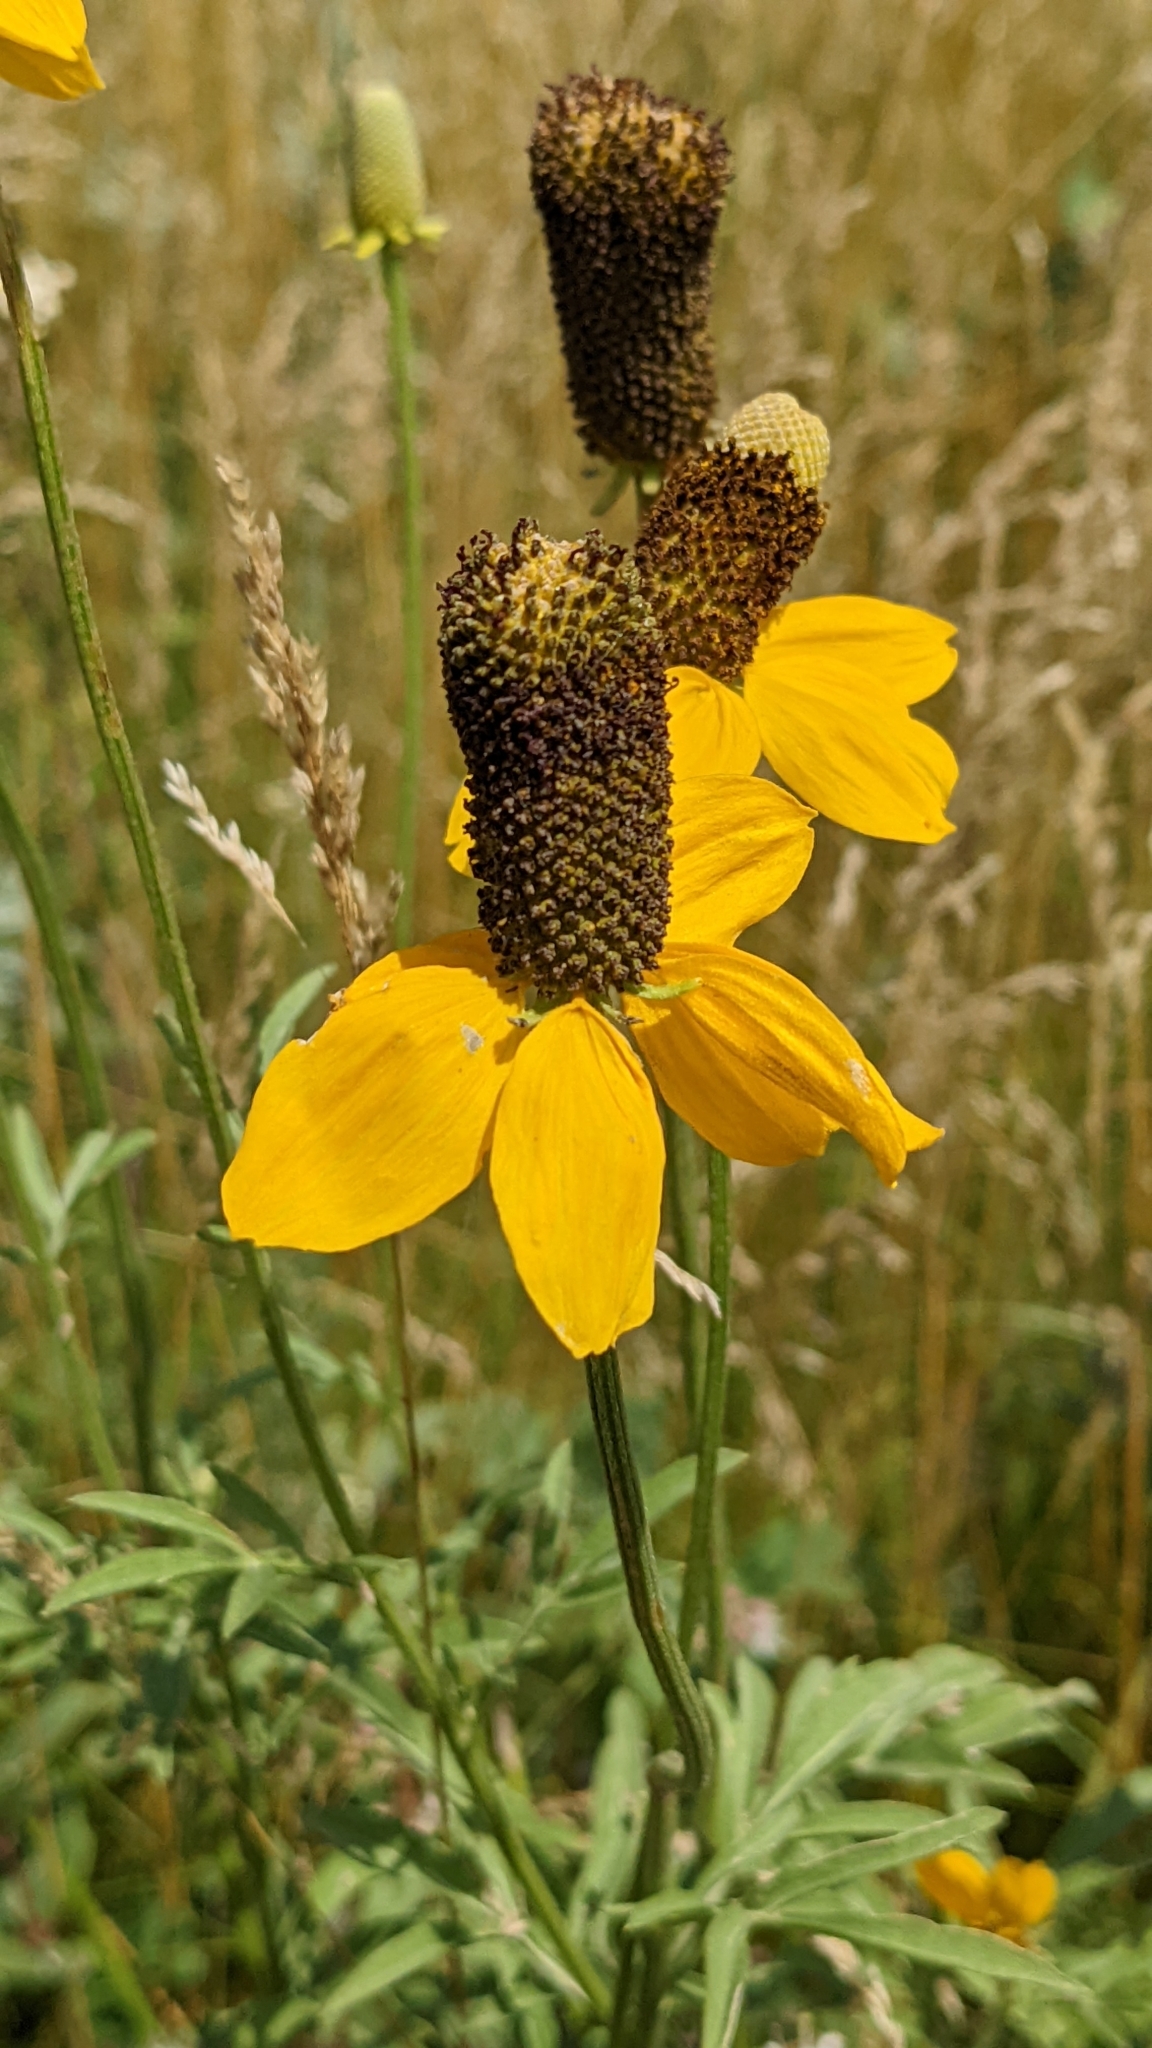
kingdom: Plantae
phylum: Tracheophyta
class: Magnoliopsida
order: Asterales
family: Asteraceae
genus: Ratibida
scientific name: Ratibida columnifera
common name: Prairie coneflower
